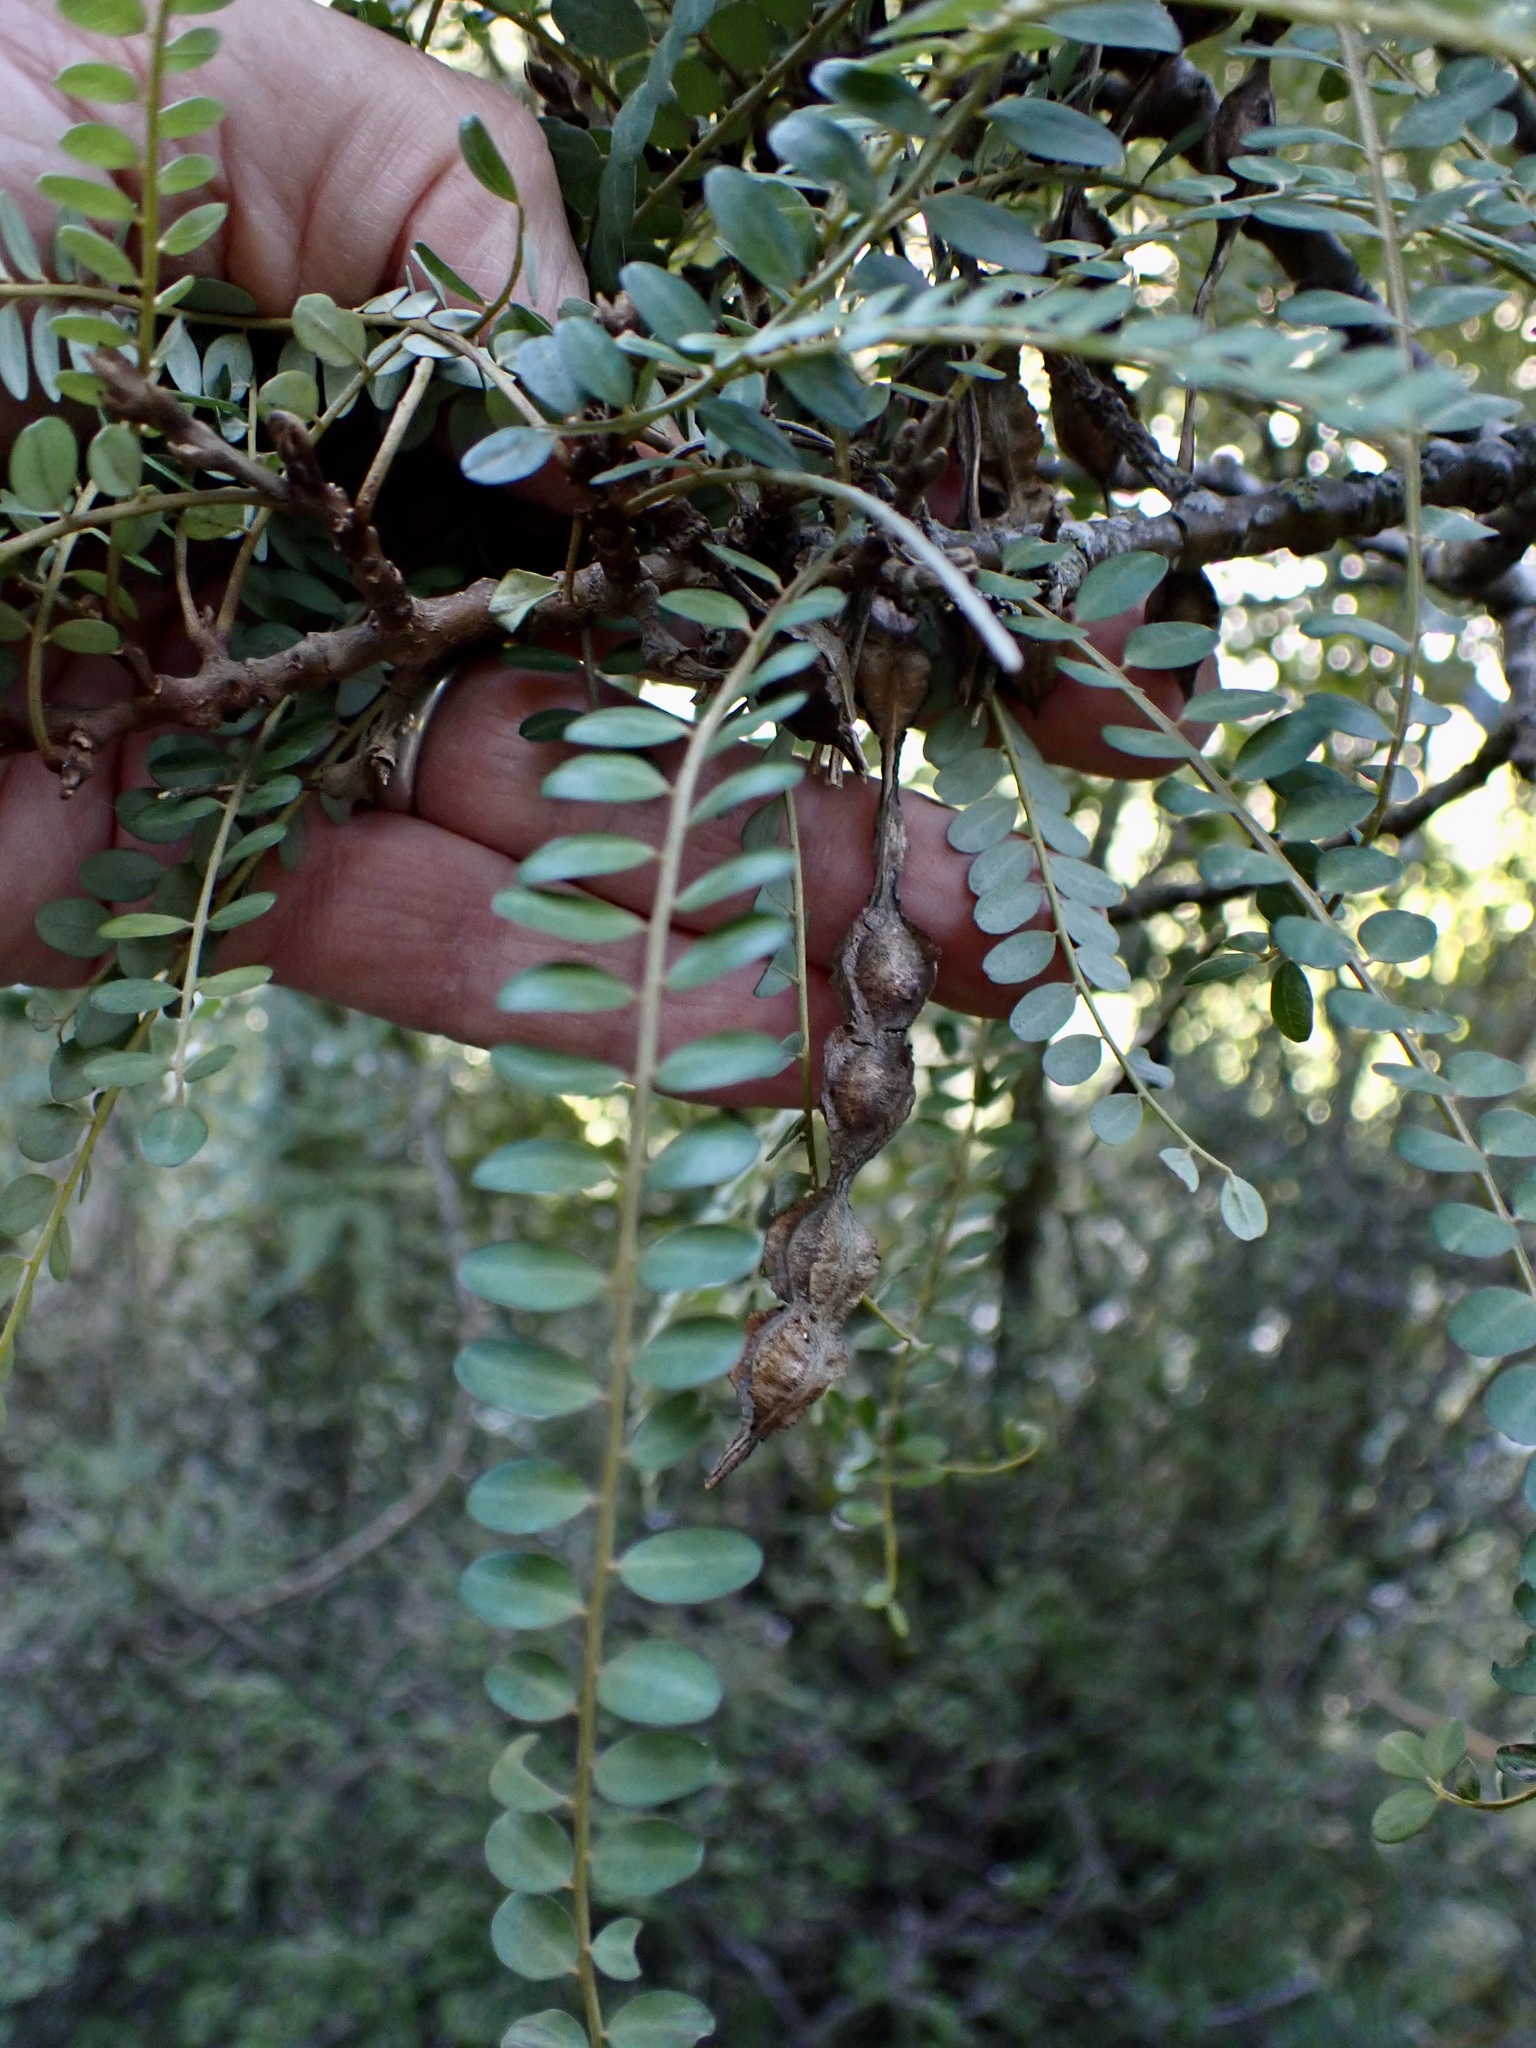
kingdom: Plantae
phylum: Tracheophyta
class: Magnoliopsida
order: Fabales
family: Fabaceae
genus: Sophora
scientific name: Sophora microphylla
